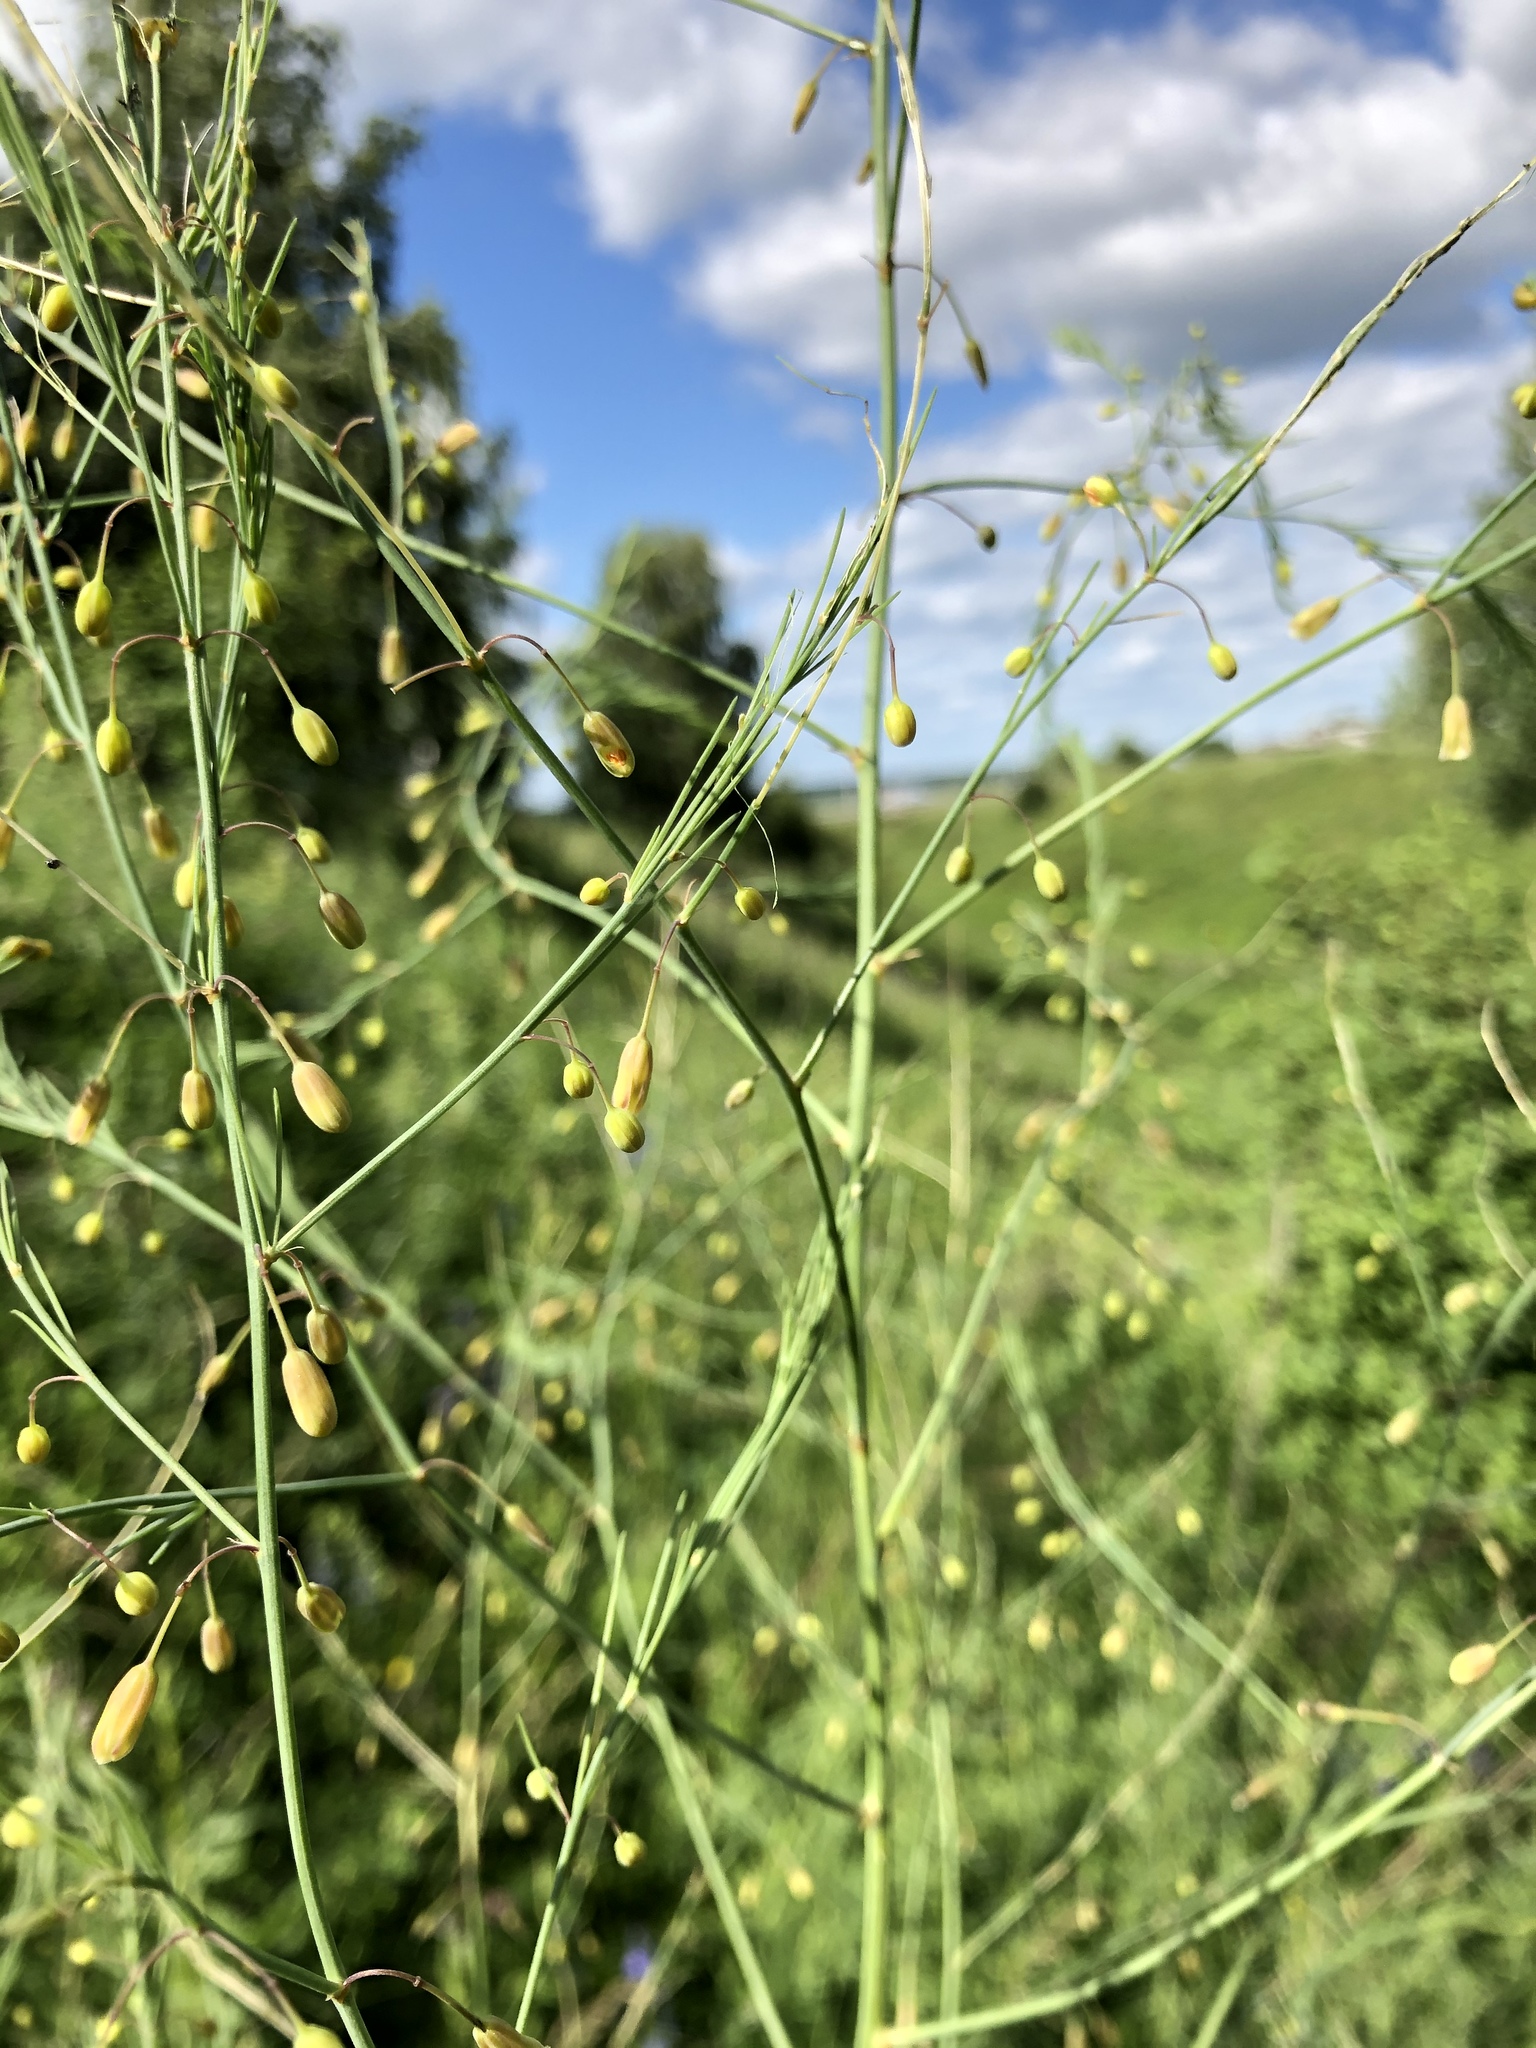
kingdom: Plantae
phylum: Tracheophyta
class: Liliopsida
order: Asparagales
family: Asparagaceae
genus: Asparagus
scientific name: Asparagus officinalis
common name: Garden asparagus
